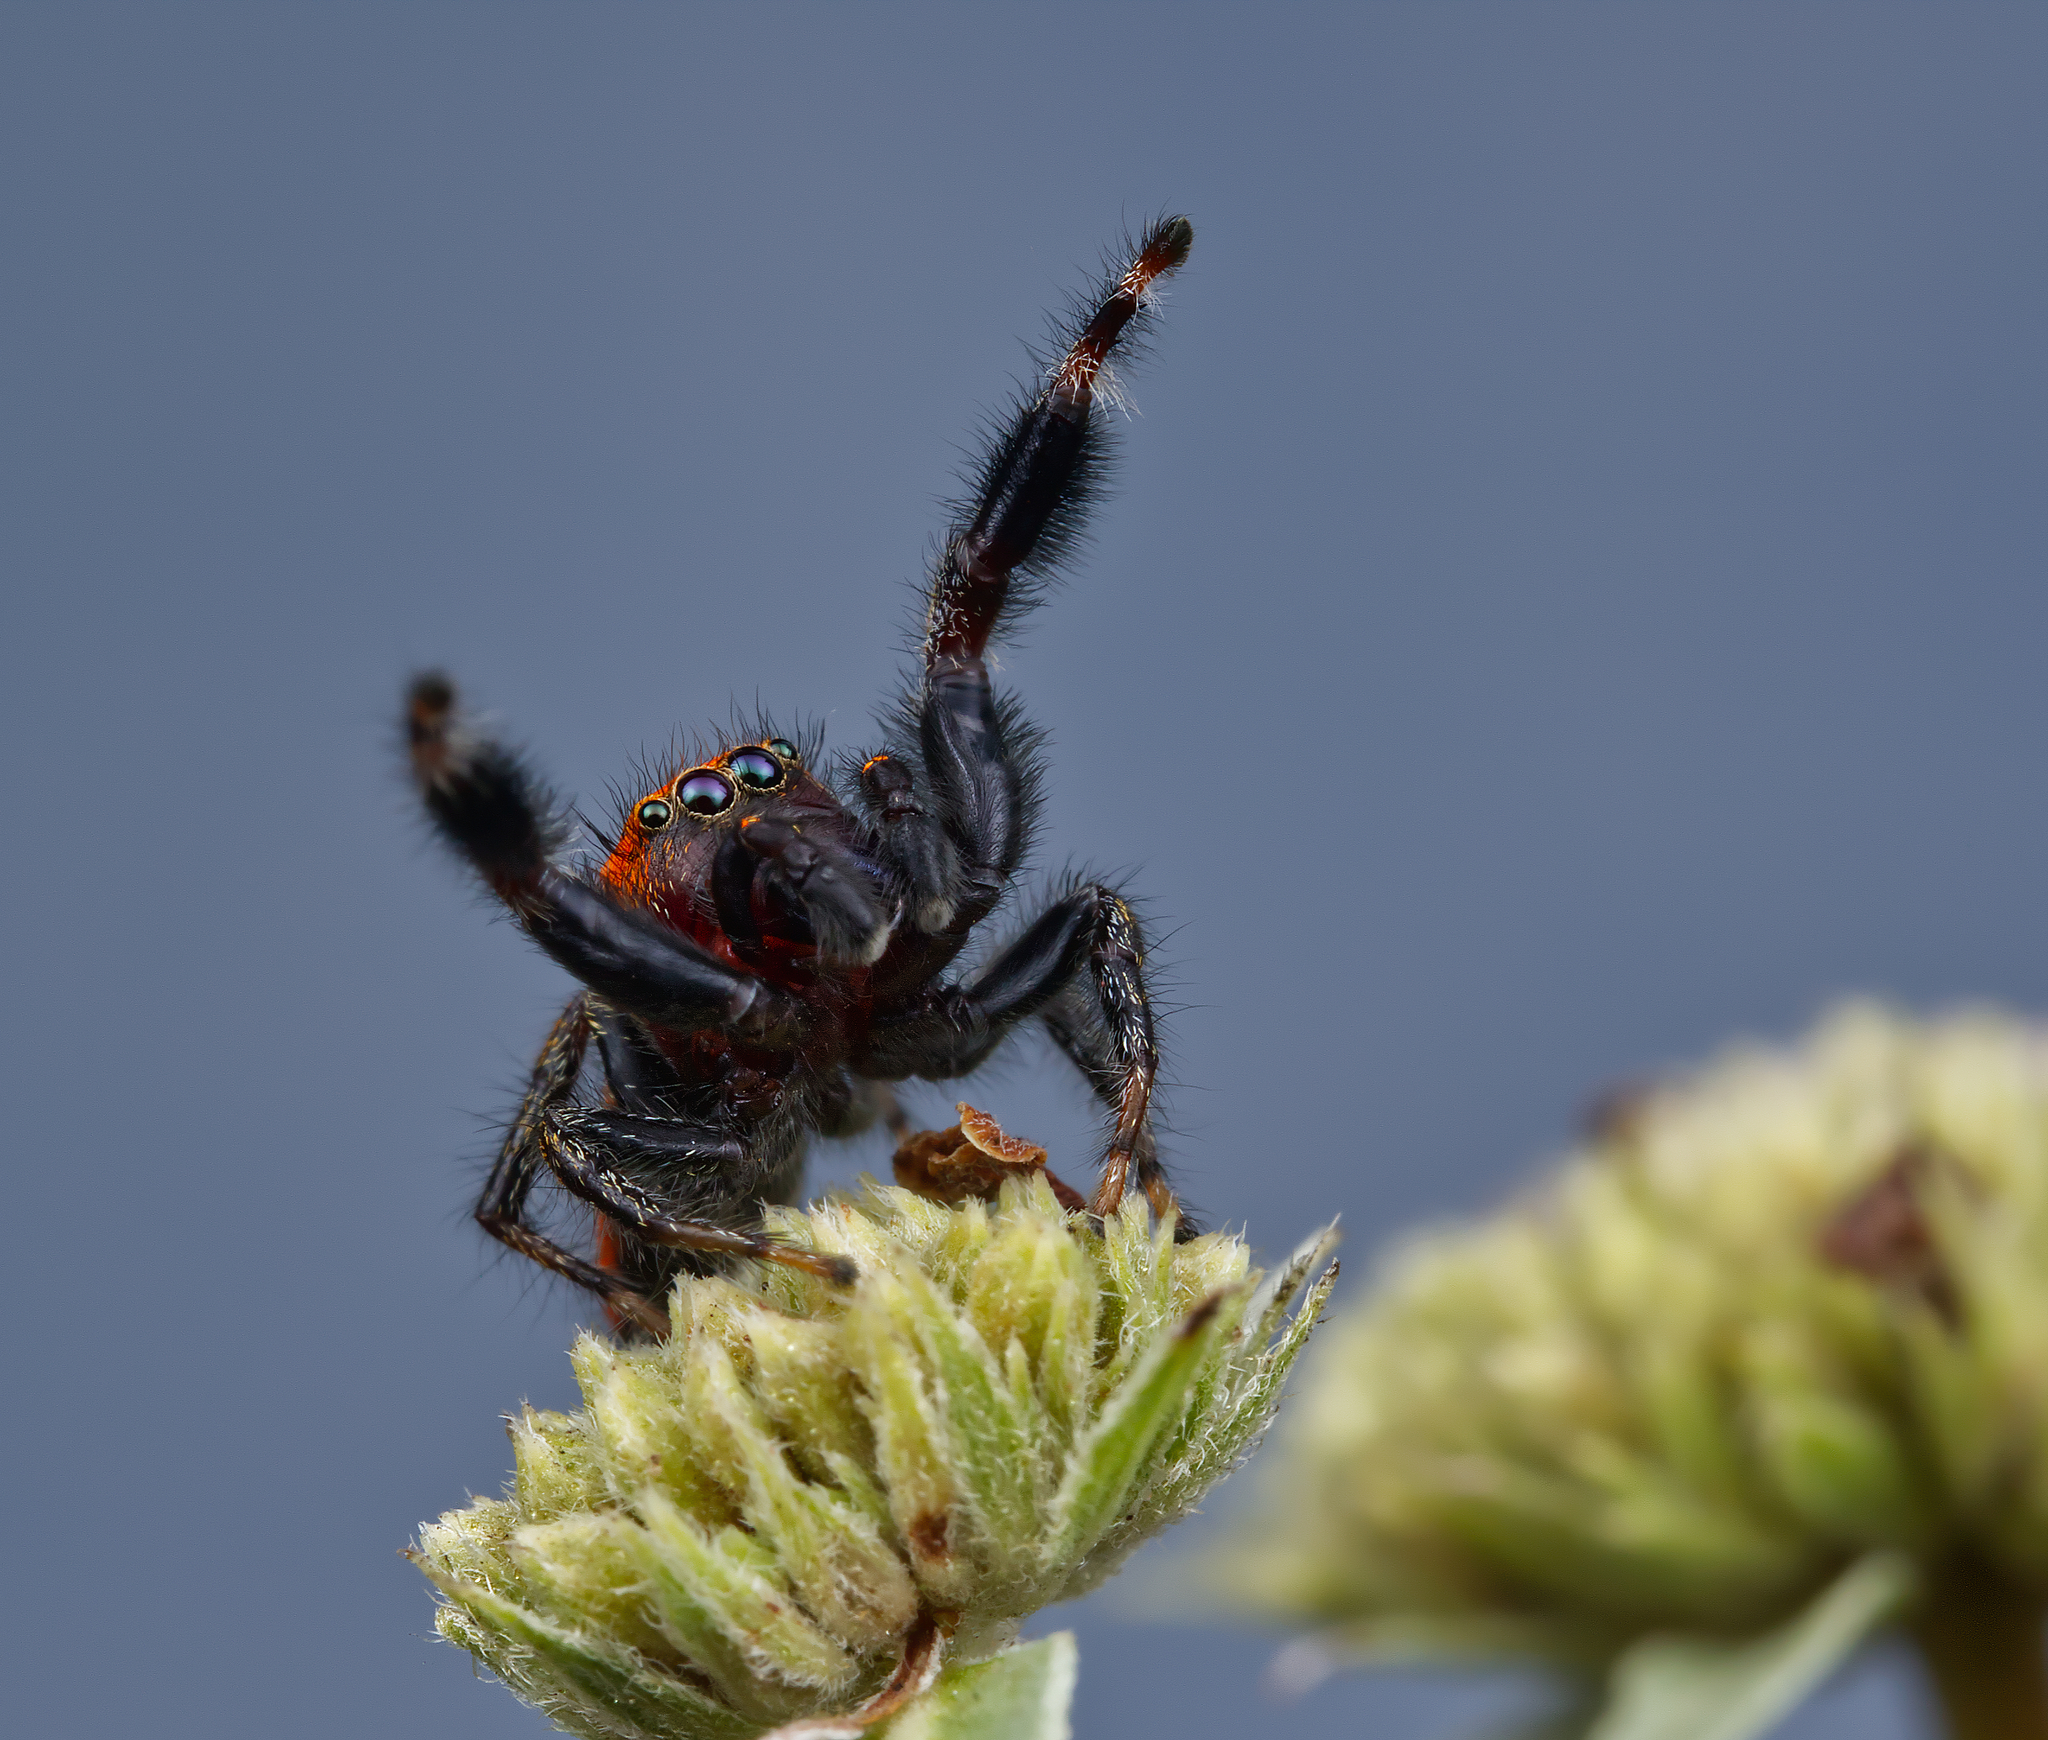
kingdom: Animalia
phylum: Arthropoda
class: Arachnida
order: Araneae
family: Salticidae
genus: Phidippus
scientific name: Phidippus cardinalis
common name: Cardinal jumper
